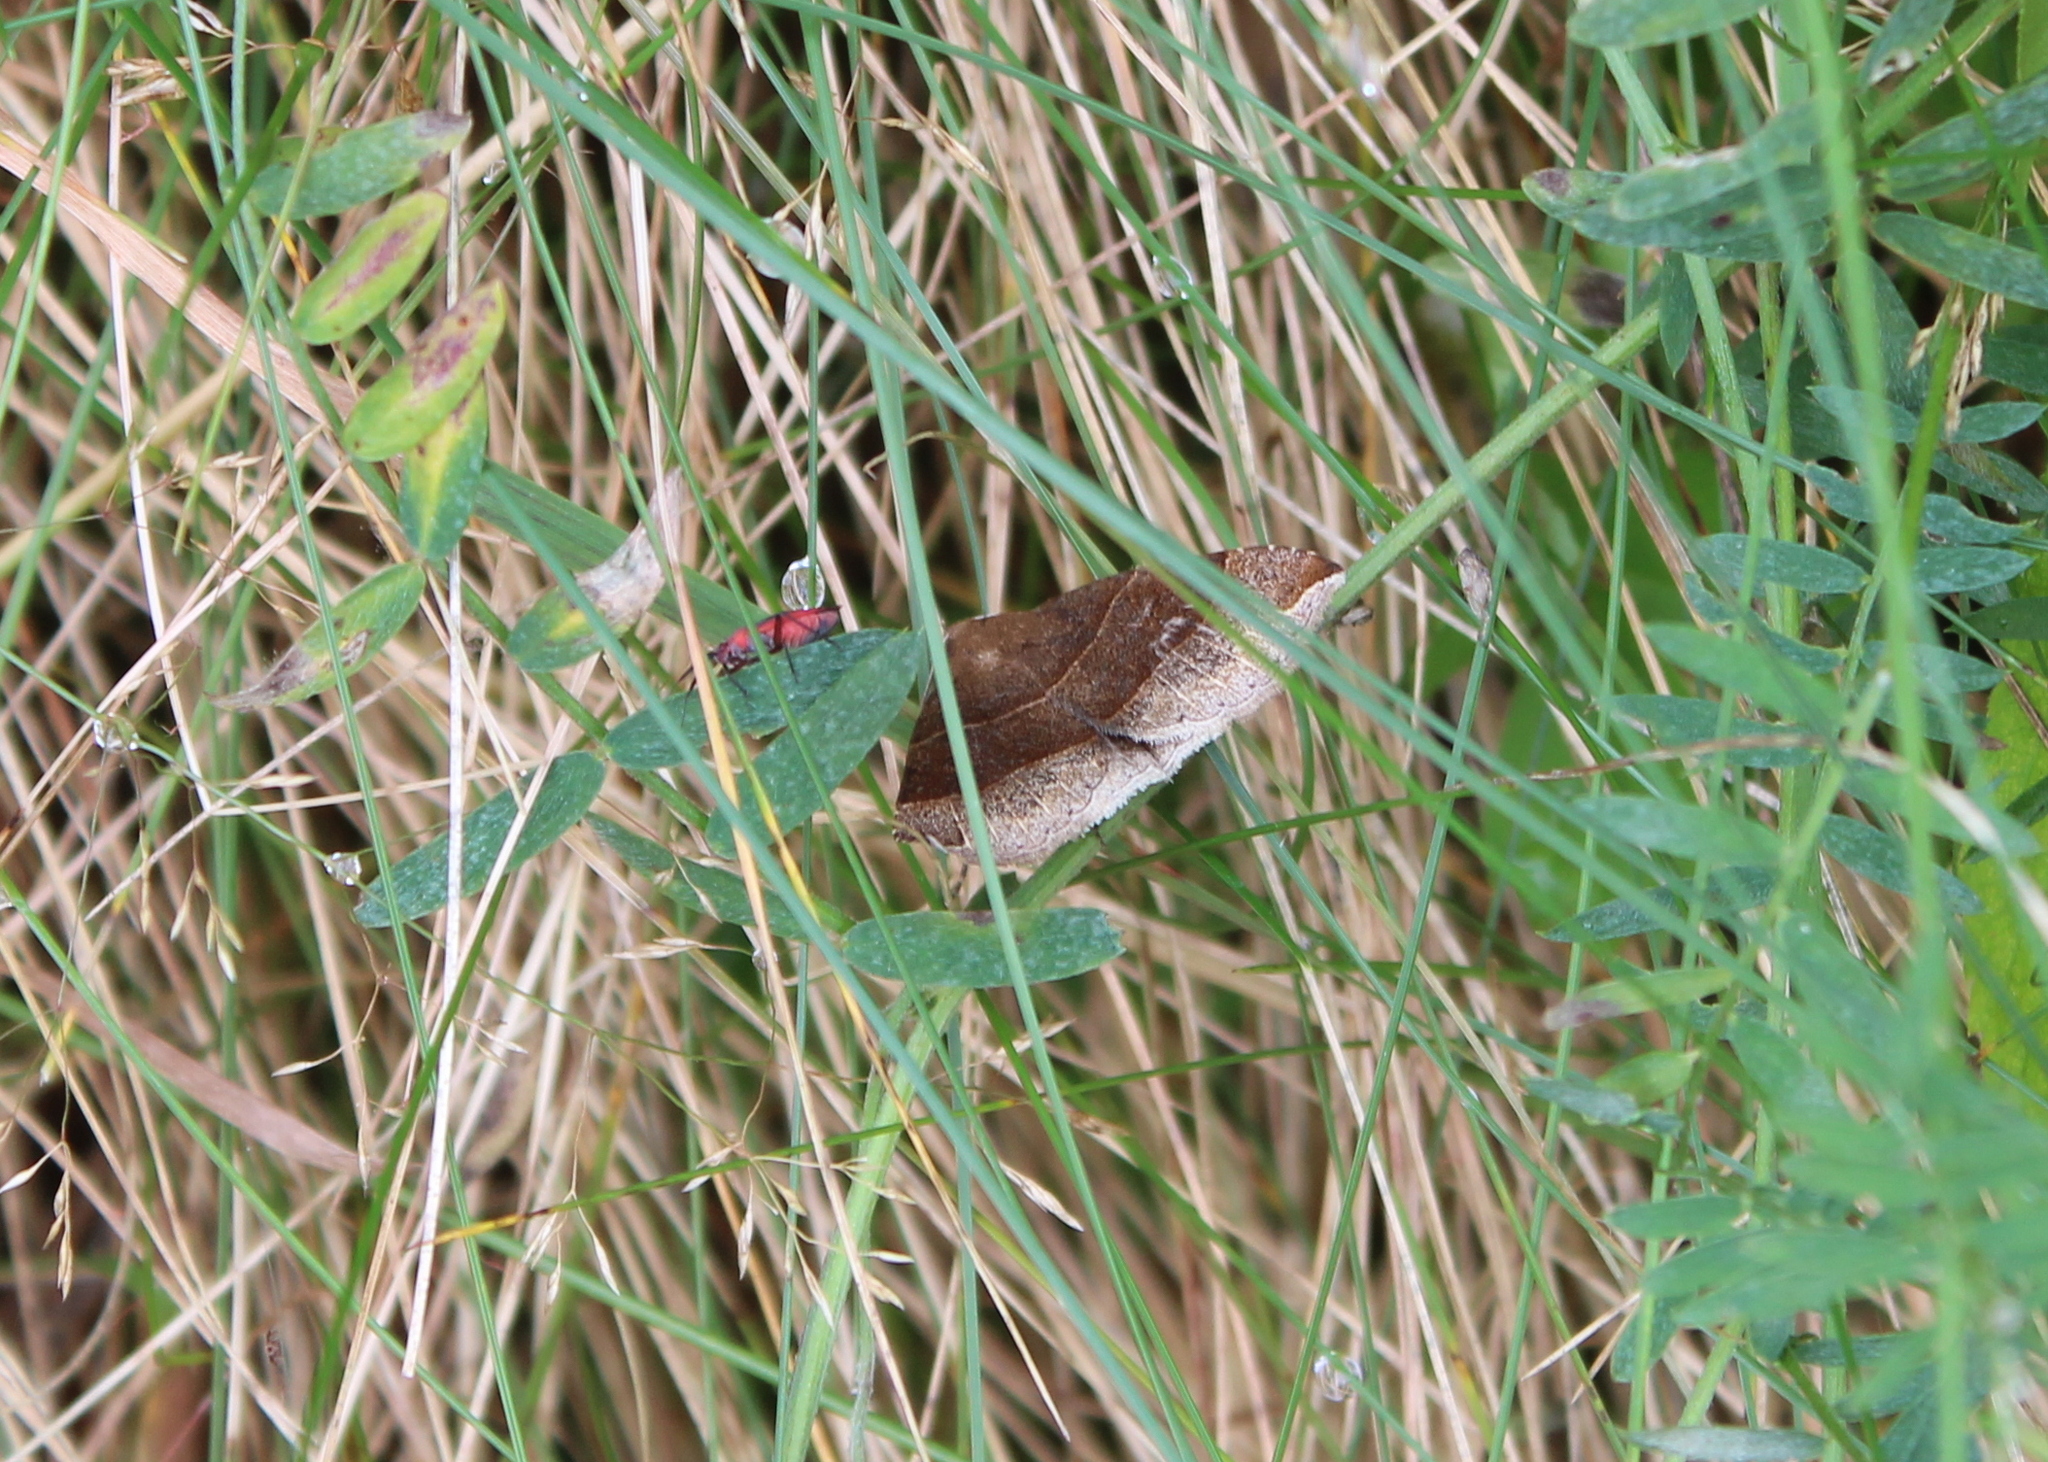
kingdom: Animalia
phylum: Arthropoda
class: Insecta
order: Lepidoptera
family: Erebidae
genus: Parallelia
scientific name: Parallelia bistriaris
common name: Maple looper moth
